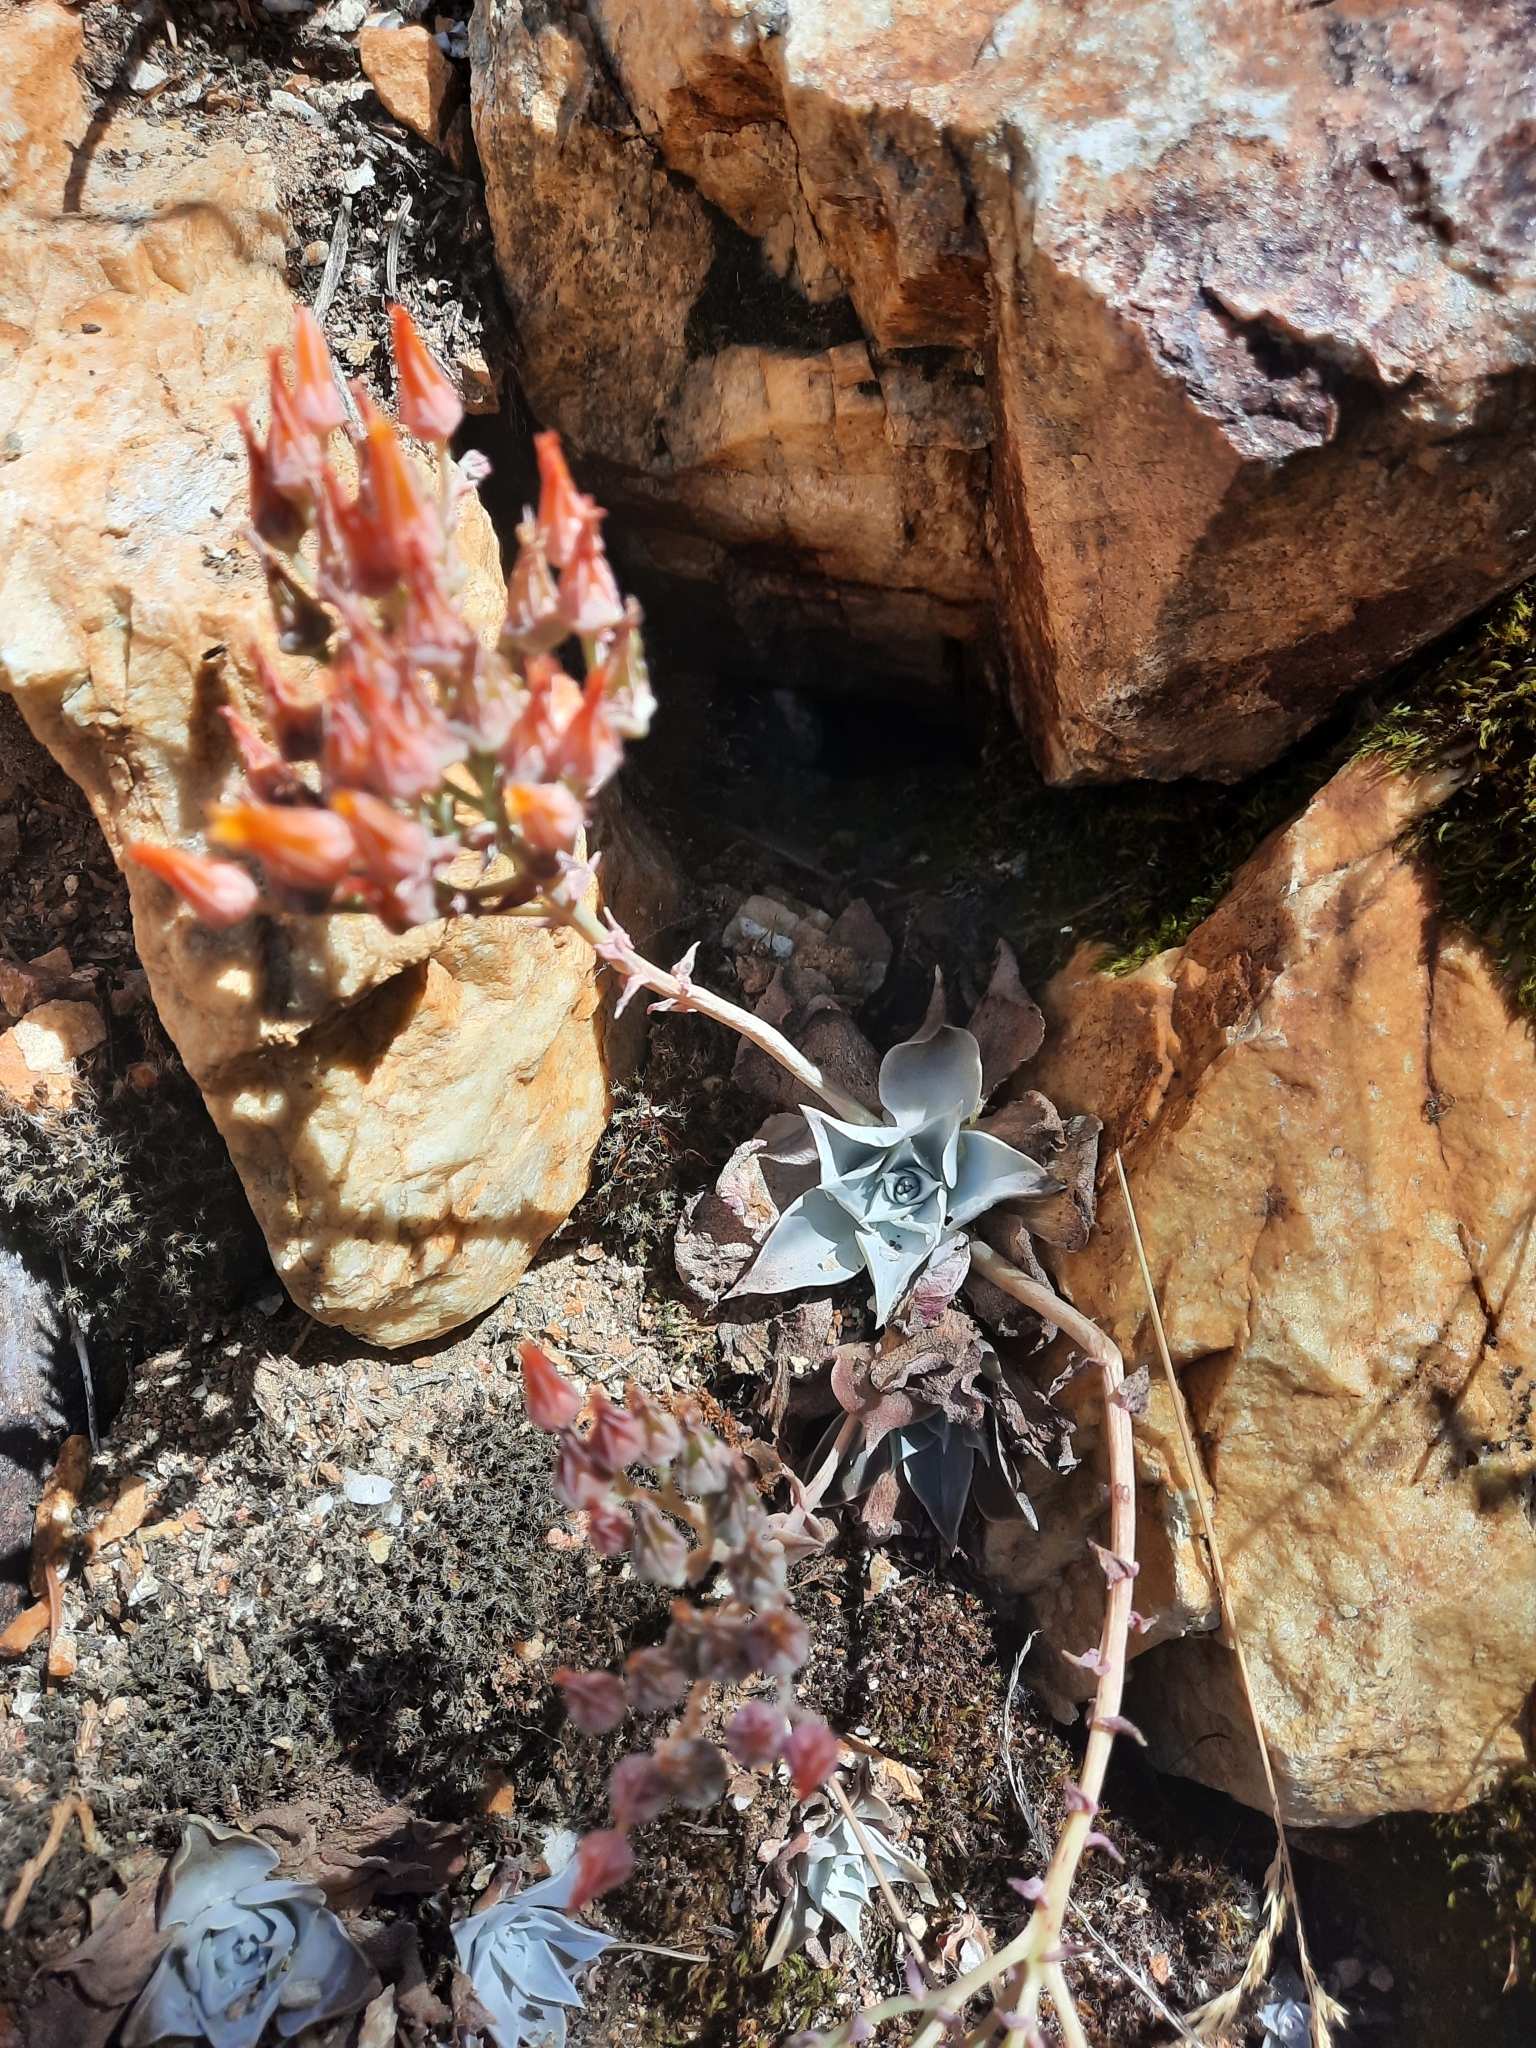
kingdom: Plantae
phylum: Tracheophyta
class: Magnoliopsida
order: Saxifragales
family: Crassulaceae
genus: Dudleya
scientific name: Dudleya cymosa
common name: Canyon dudleya
